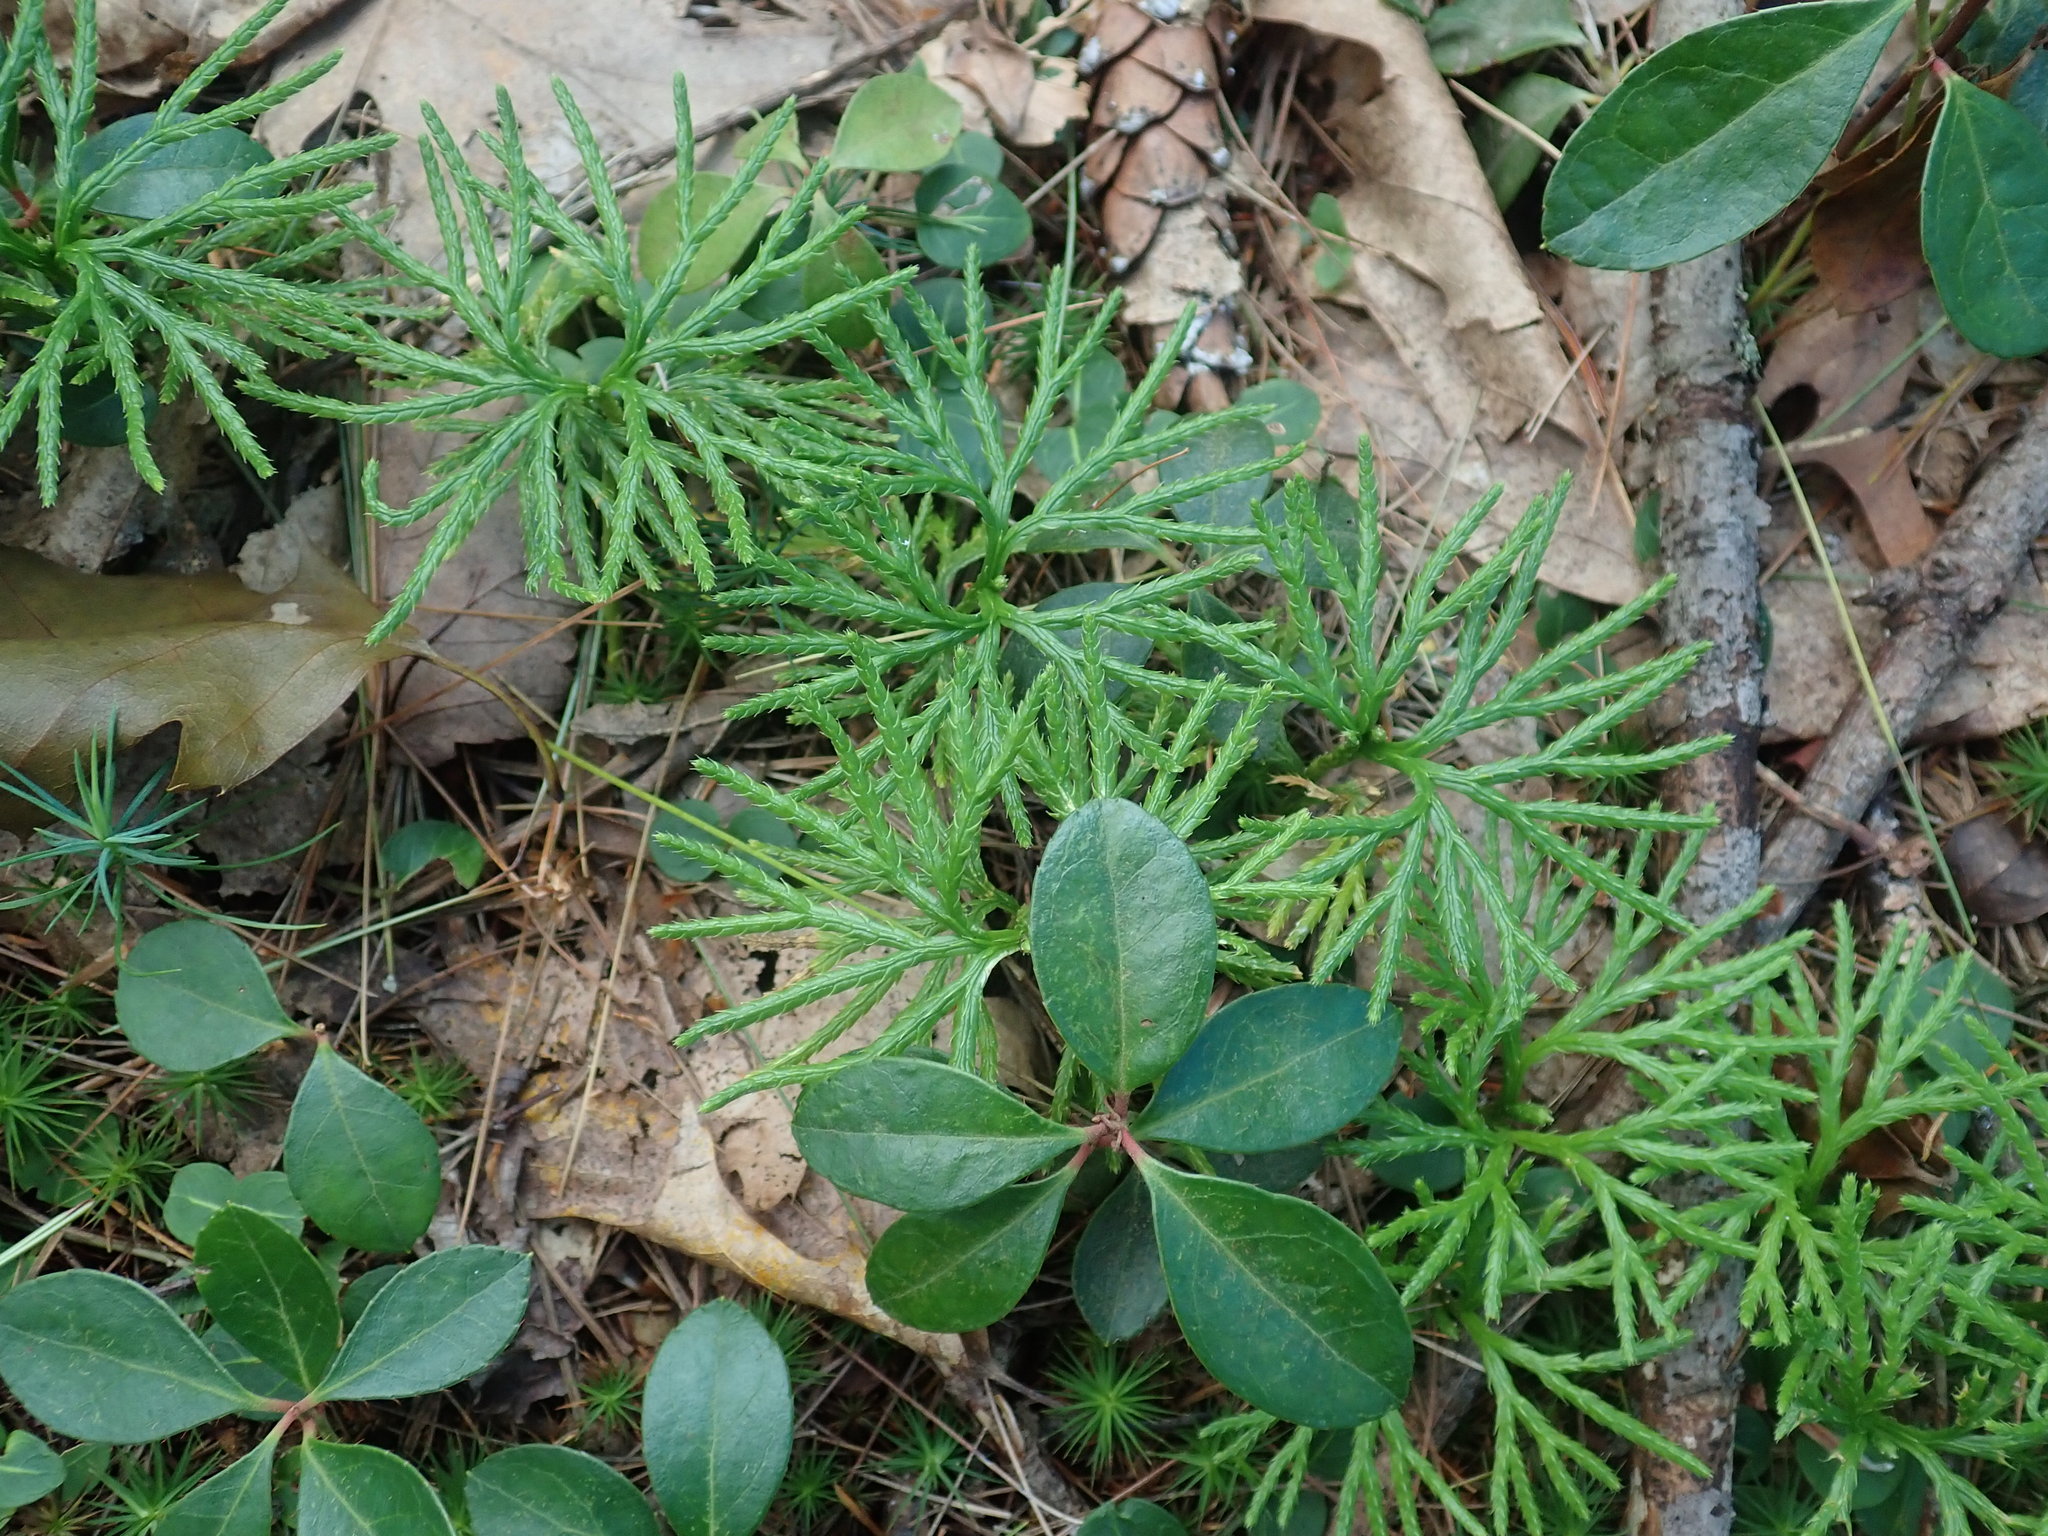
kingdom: Plantae
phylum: Tracheophyta
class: Lycopodiopsida
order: Lycopodiales
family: Lycopodiaceae
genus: Diphasiastrum
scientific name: Diphasiastrum digitatum
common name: Southern running-pine
